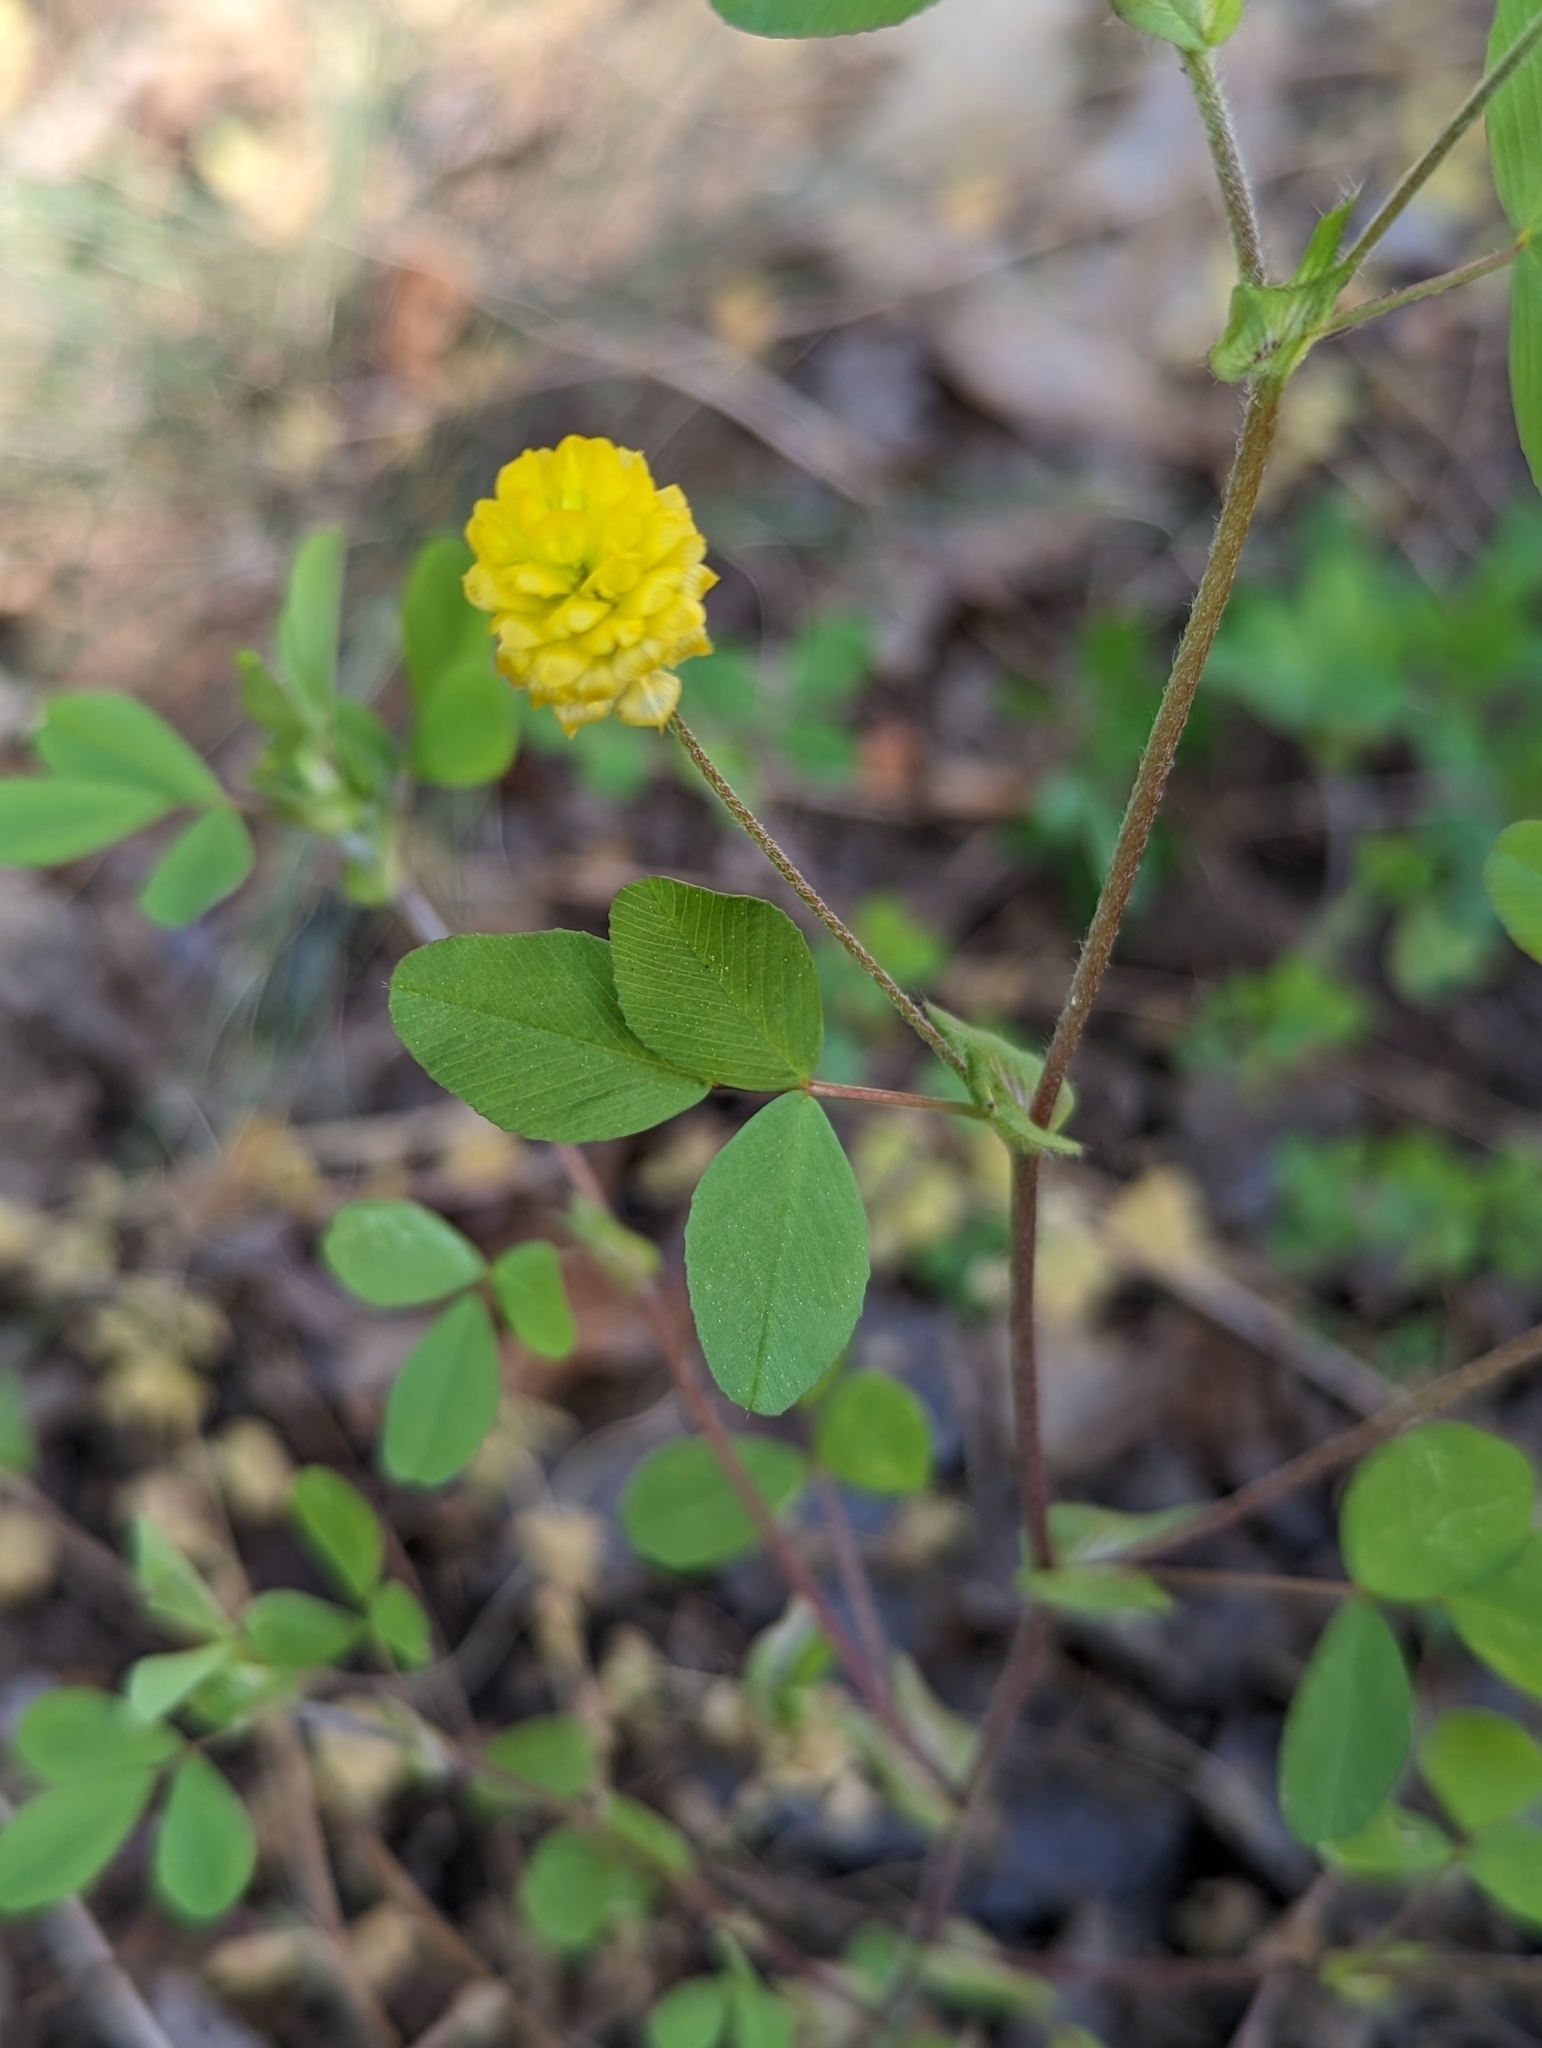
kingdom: Plantae
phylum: Tracheophyta
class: Magnoliopsida
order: Fabales
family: Fabaceae
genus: Trifolium
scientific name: Trifolium campestre
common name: Field clover
